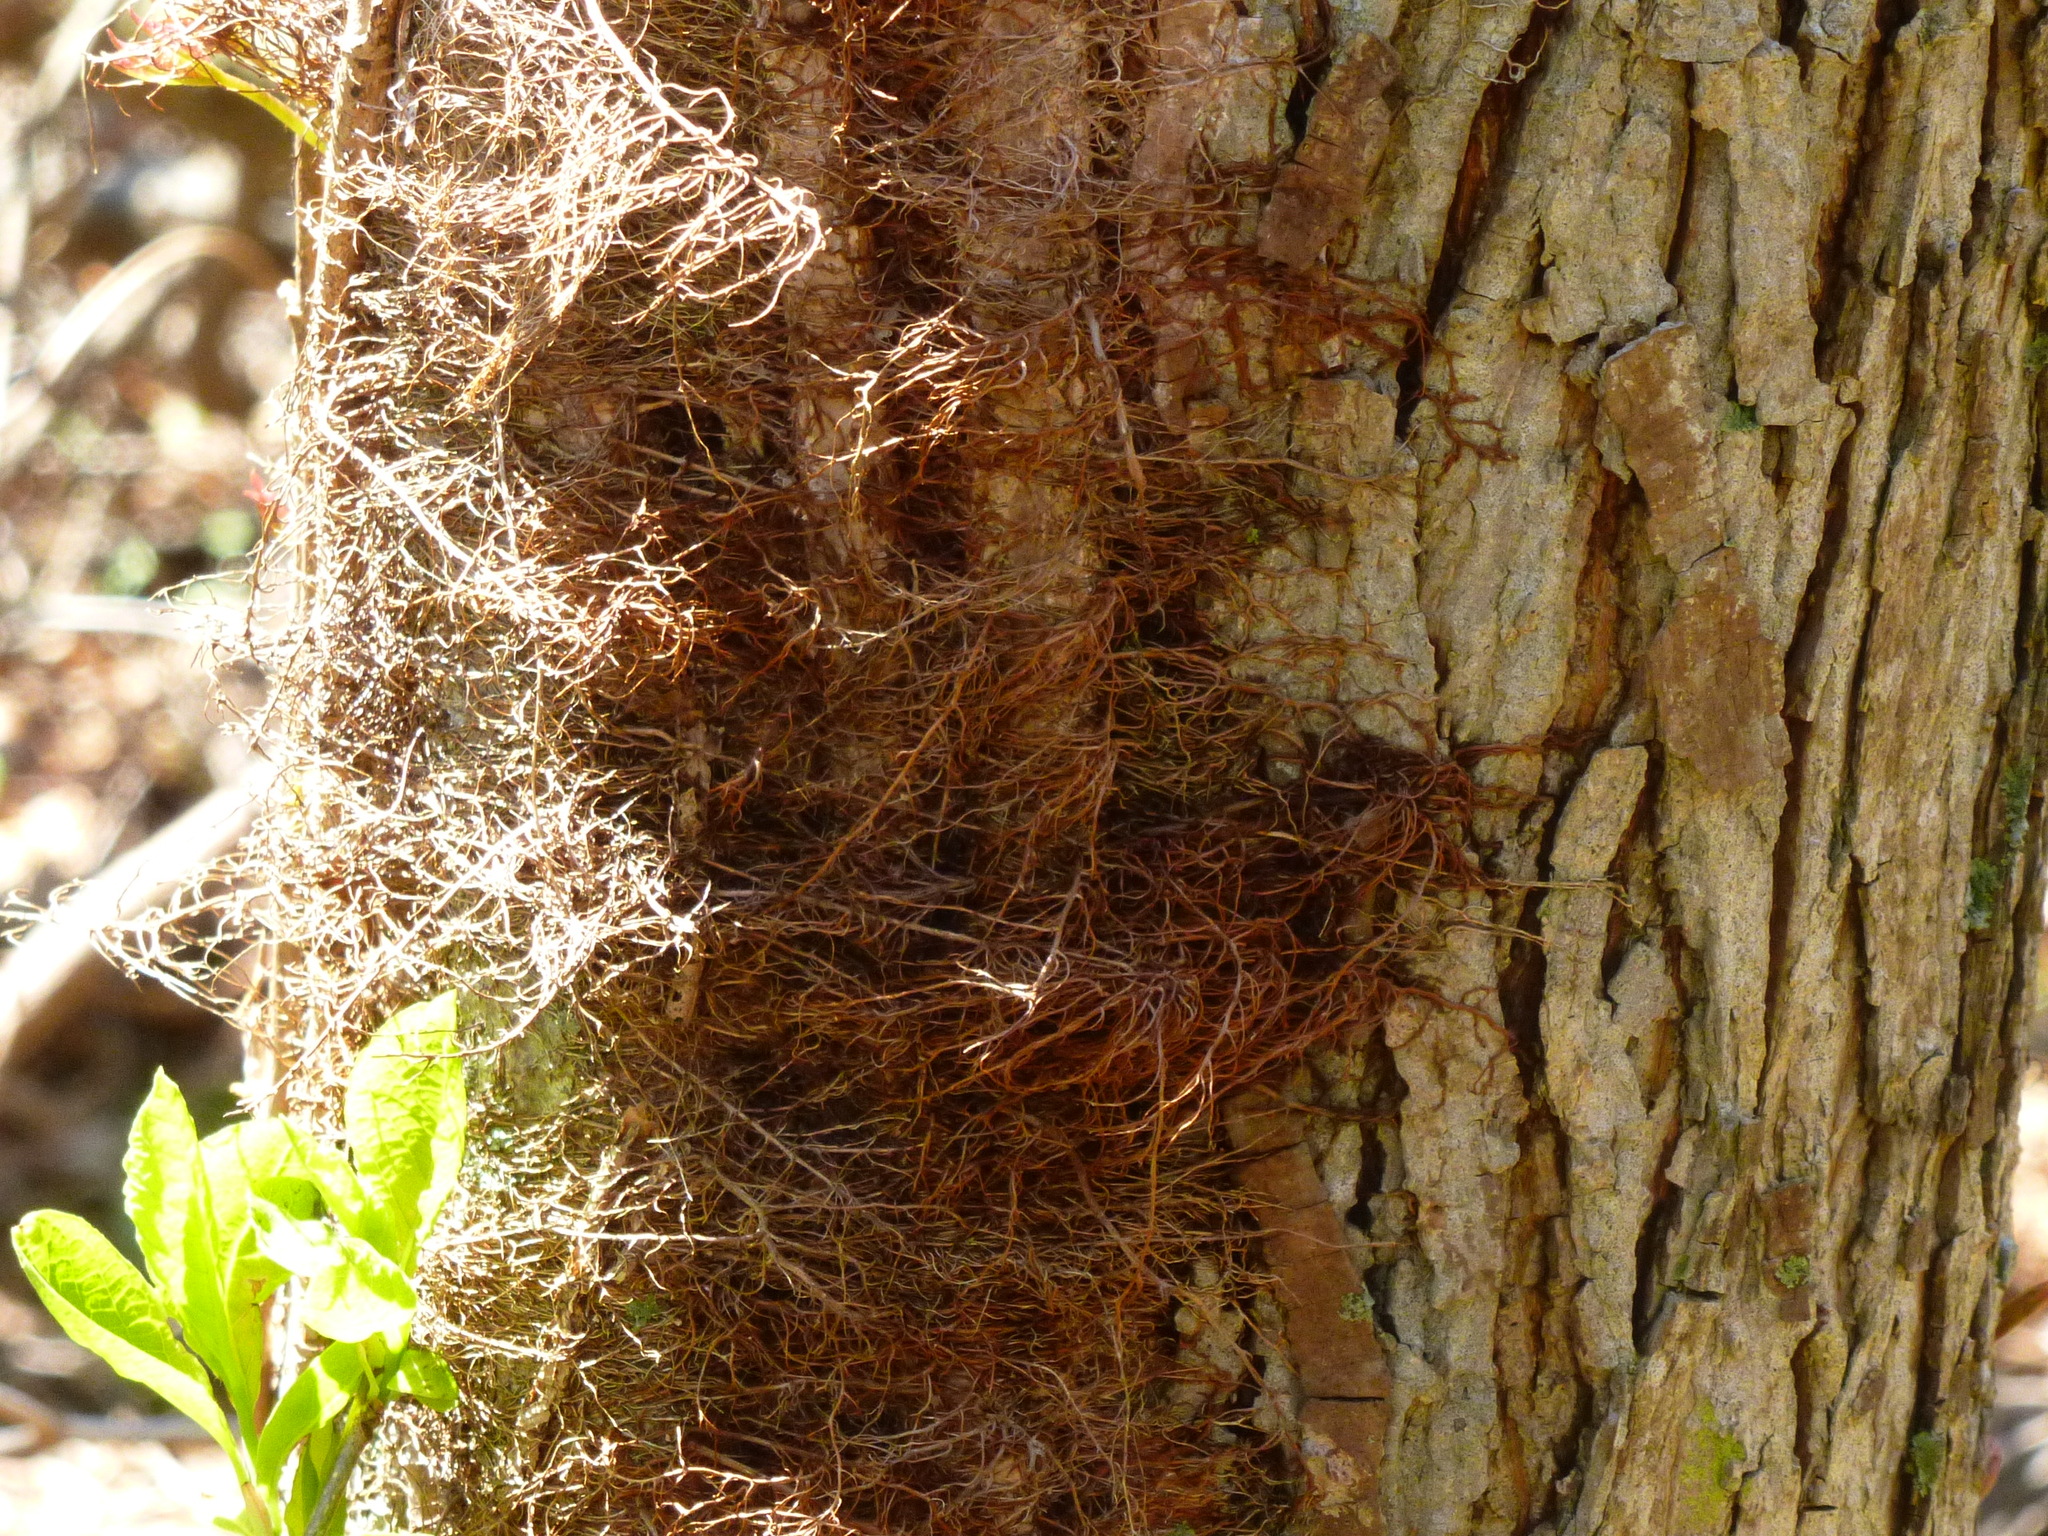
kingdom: Plantae
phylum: Tracheophyta
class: Magnoliopsida
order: Sapindales
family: Anacardiaceae
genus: Toxicodendron
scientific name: Toxicodendron radicans
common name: Poison ivy
